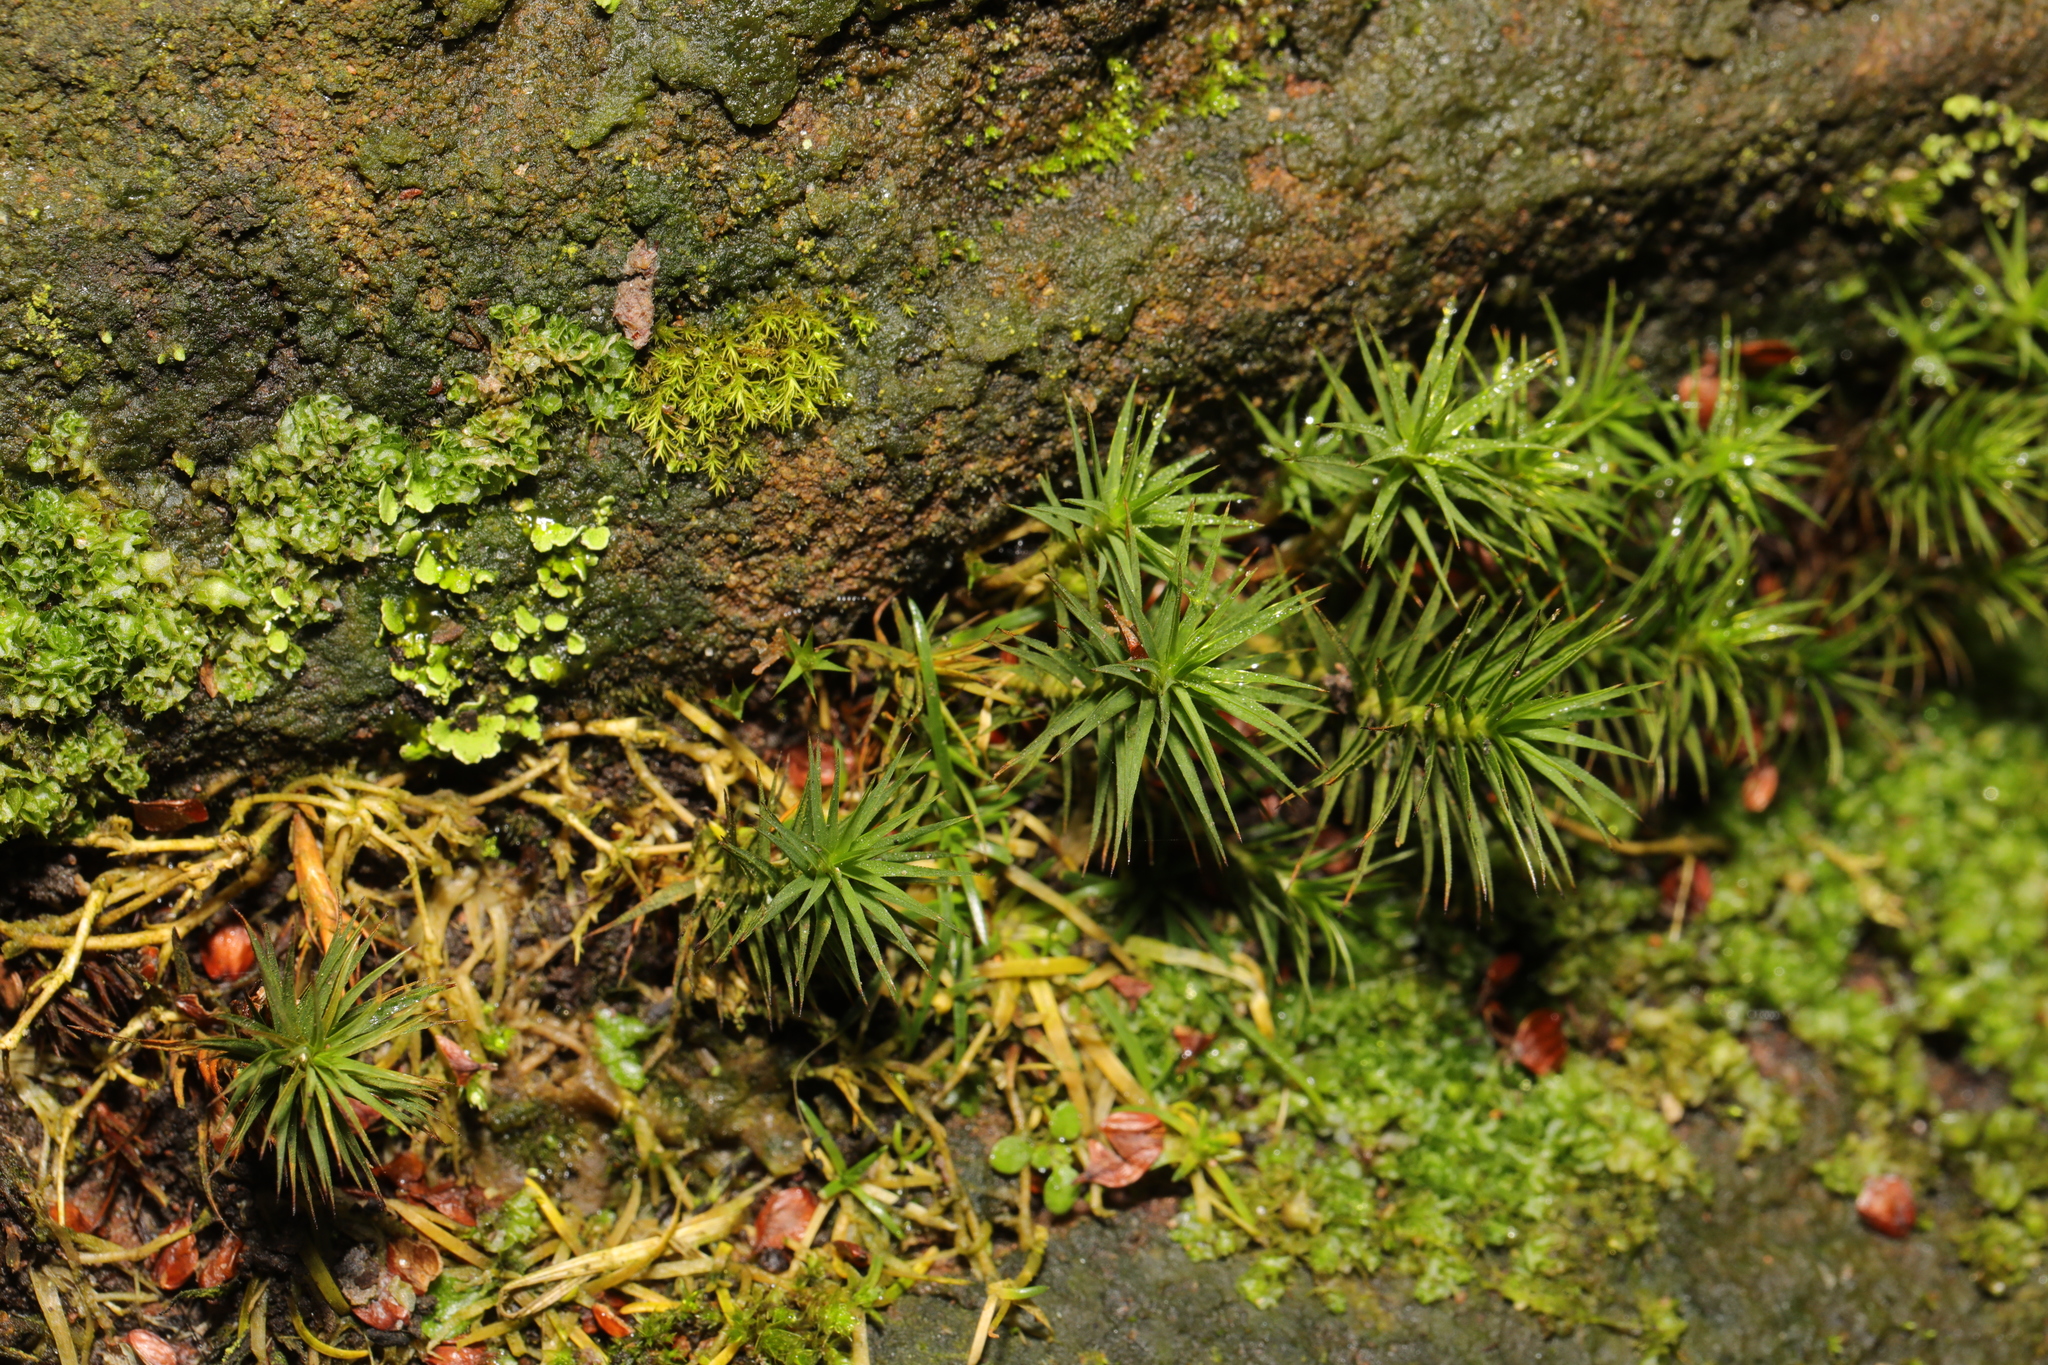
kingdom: Plantae
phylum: Bryophyta
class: Polytrichopsida
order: Polytrichales
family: Polytrichaceae
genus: Polytrichum
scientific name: Polytrichum juniperinum
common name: Juniper haircap moss
